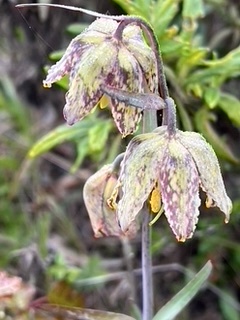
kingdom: Plantae
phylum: Tracheophyta
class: Liliopsida
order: Liliales
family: Liliaceae
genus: Fritillaria
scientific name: Fritillaria affinis
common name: Ojai fritillary
